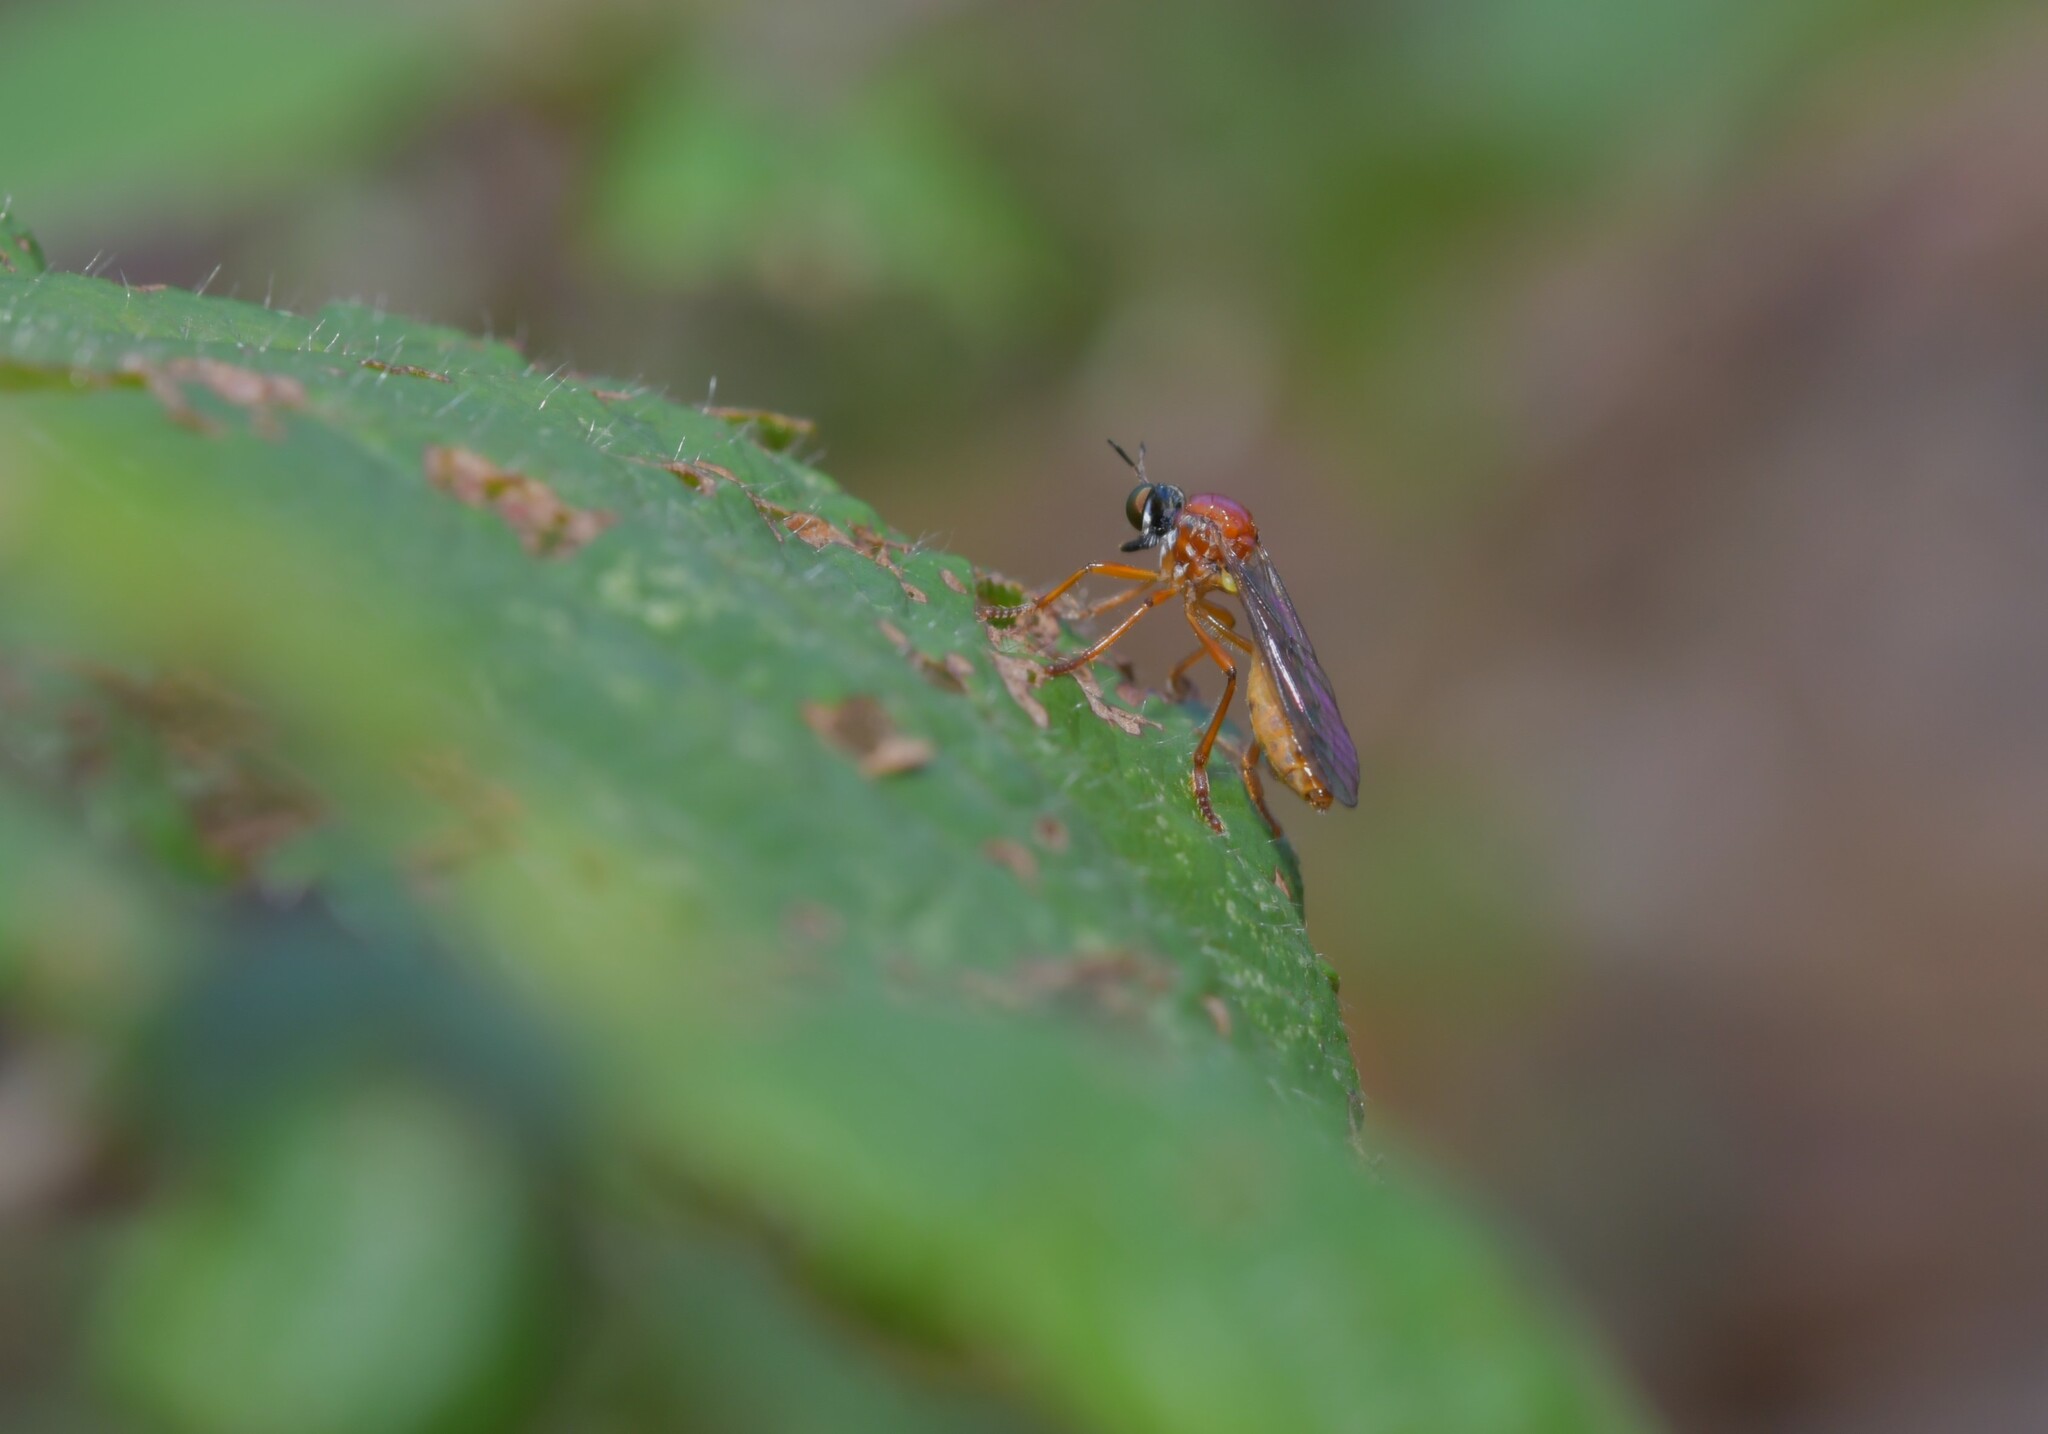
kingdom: Animalia
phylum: Arthropoda
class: Insecta
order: Diptera
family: Asilidae
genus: Dioctria
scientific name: Dioctria rufa
